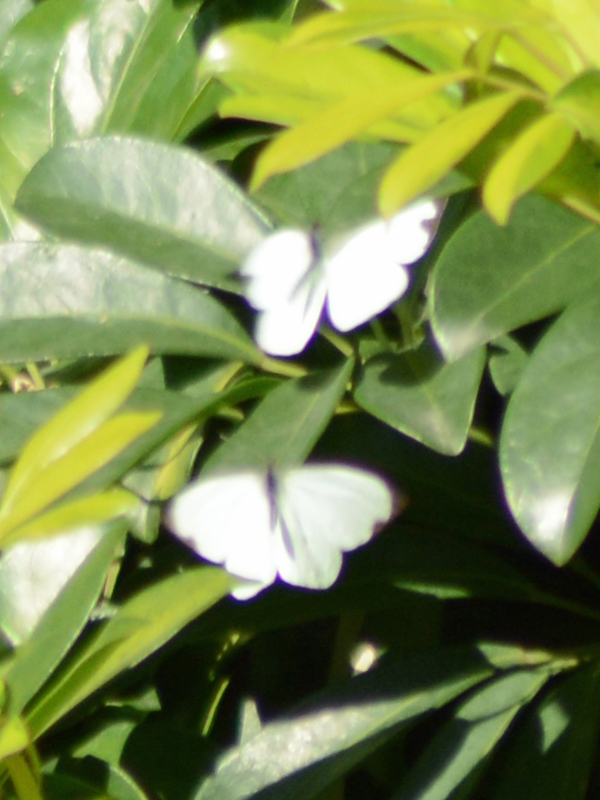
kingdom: Animalia
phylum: Arthropoda
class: Insecta
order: Lepidoptera
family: Pieridae
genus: Leptophobia
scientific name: Leptophobia aripa
